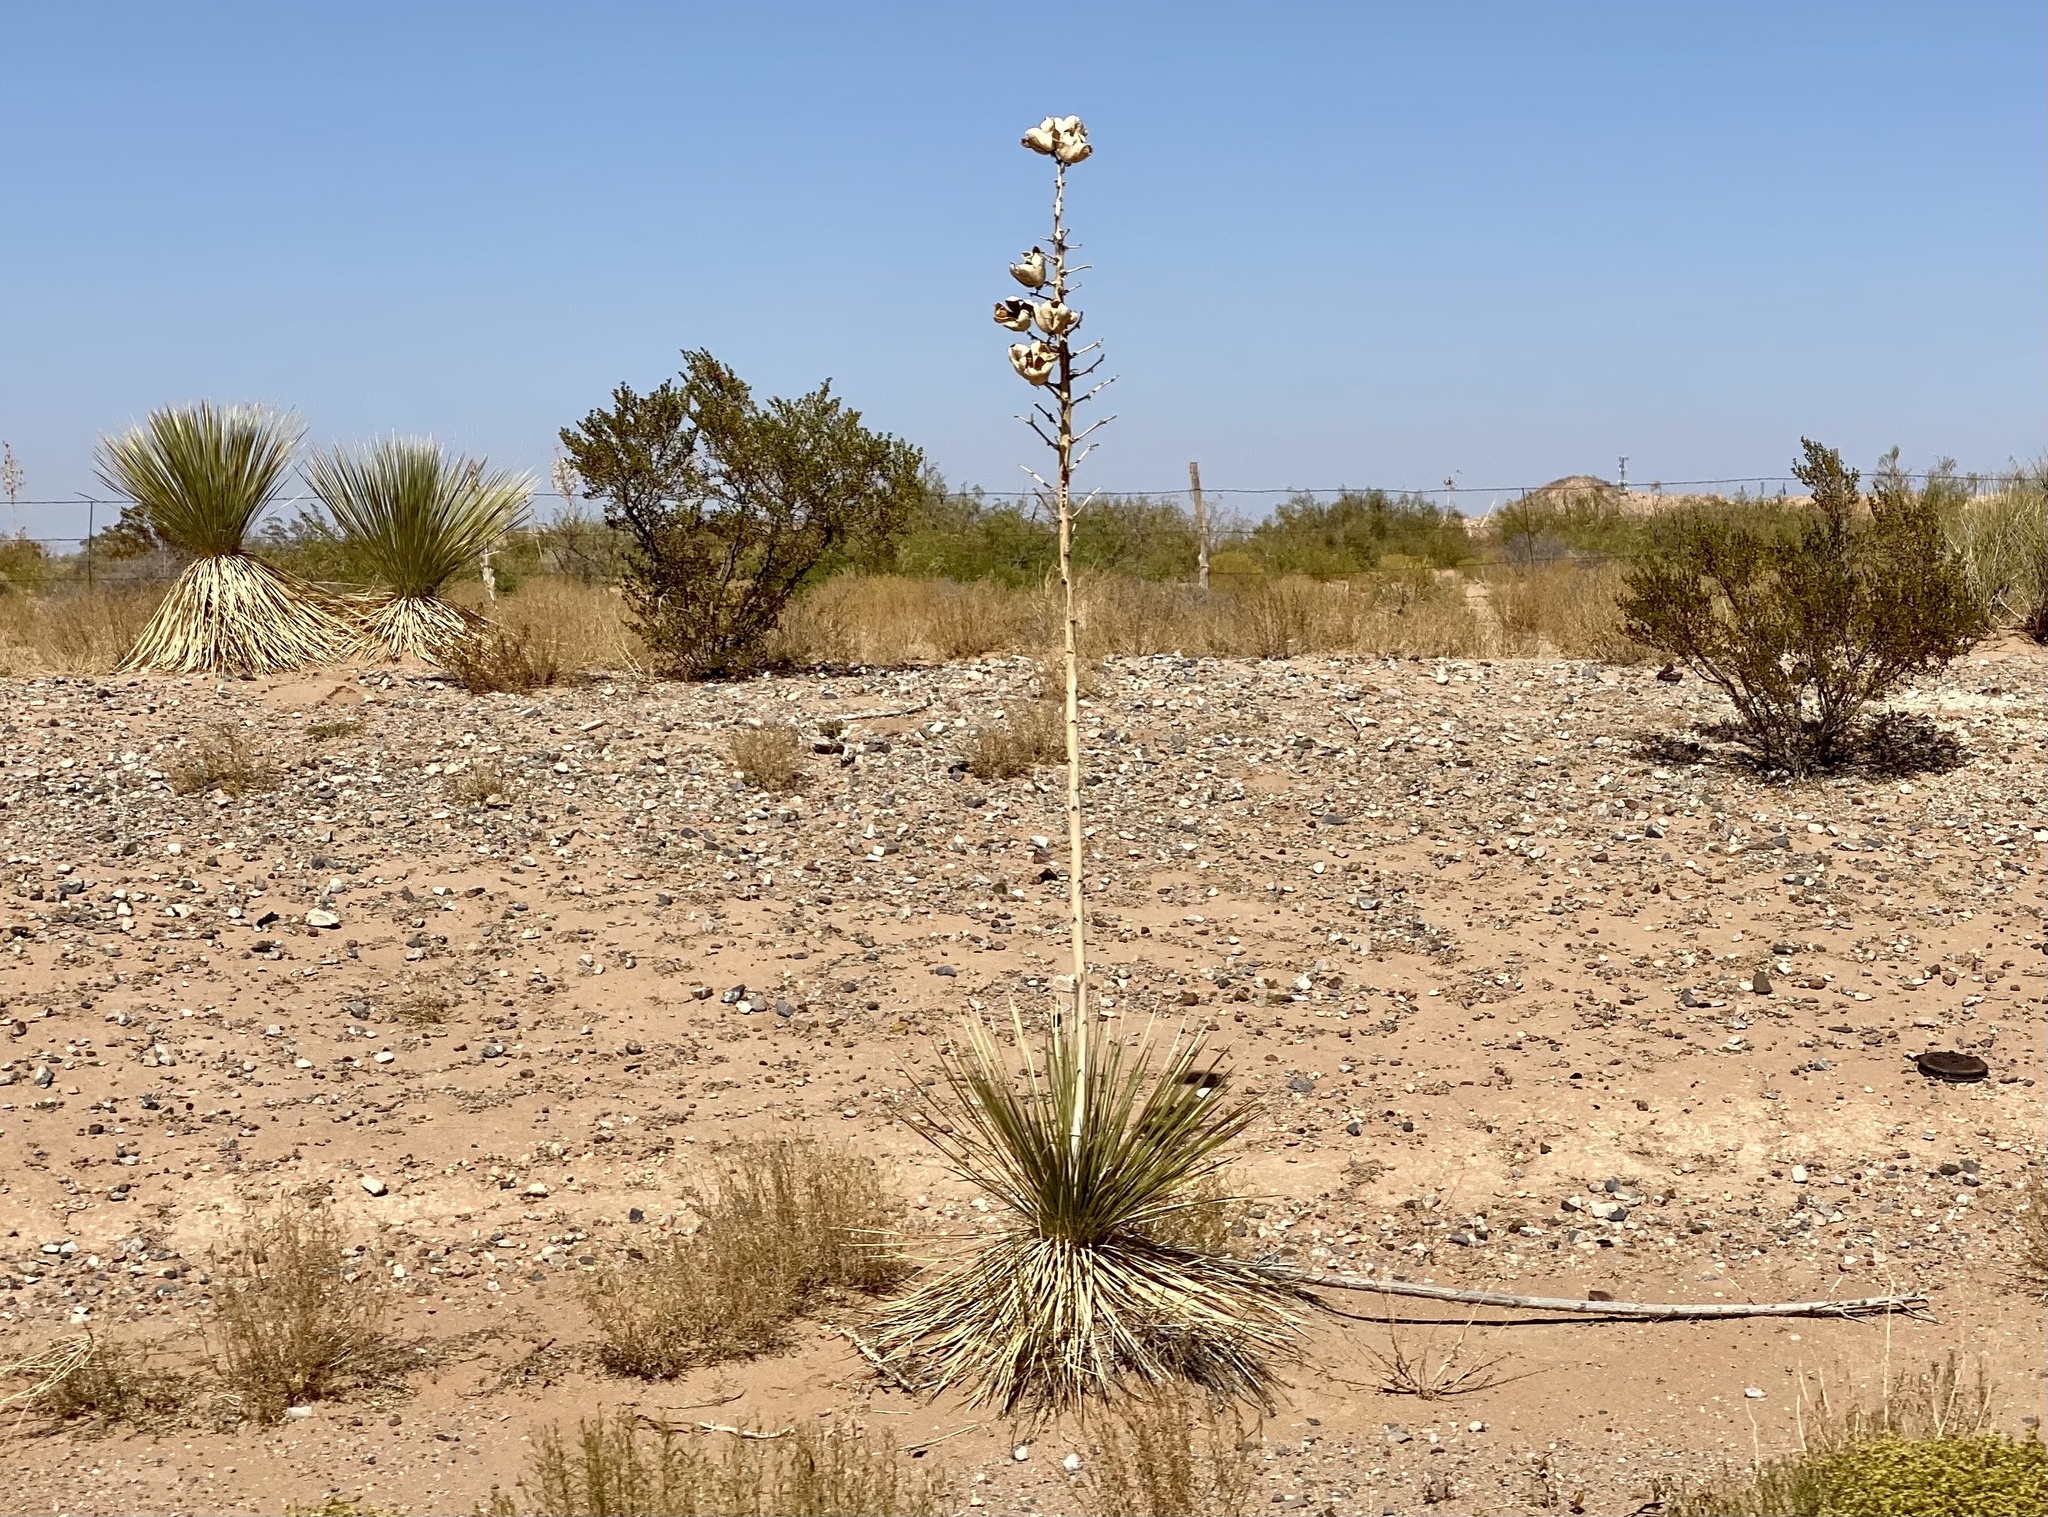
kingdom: Plantae
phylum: Tracheophyta
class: Liliopsida
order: Asparagales
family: Asparagaceae
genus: Yucca
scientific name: Yucca elata
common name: Palmella
